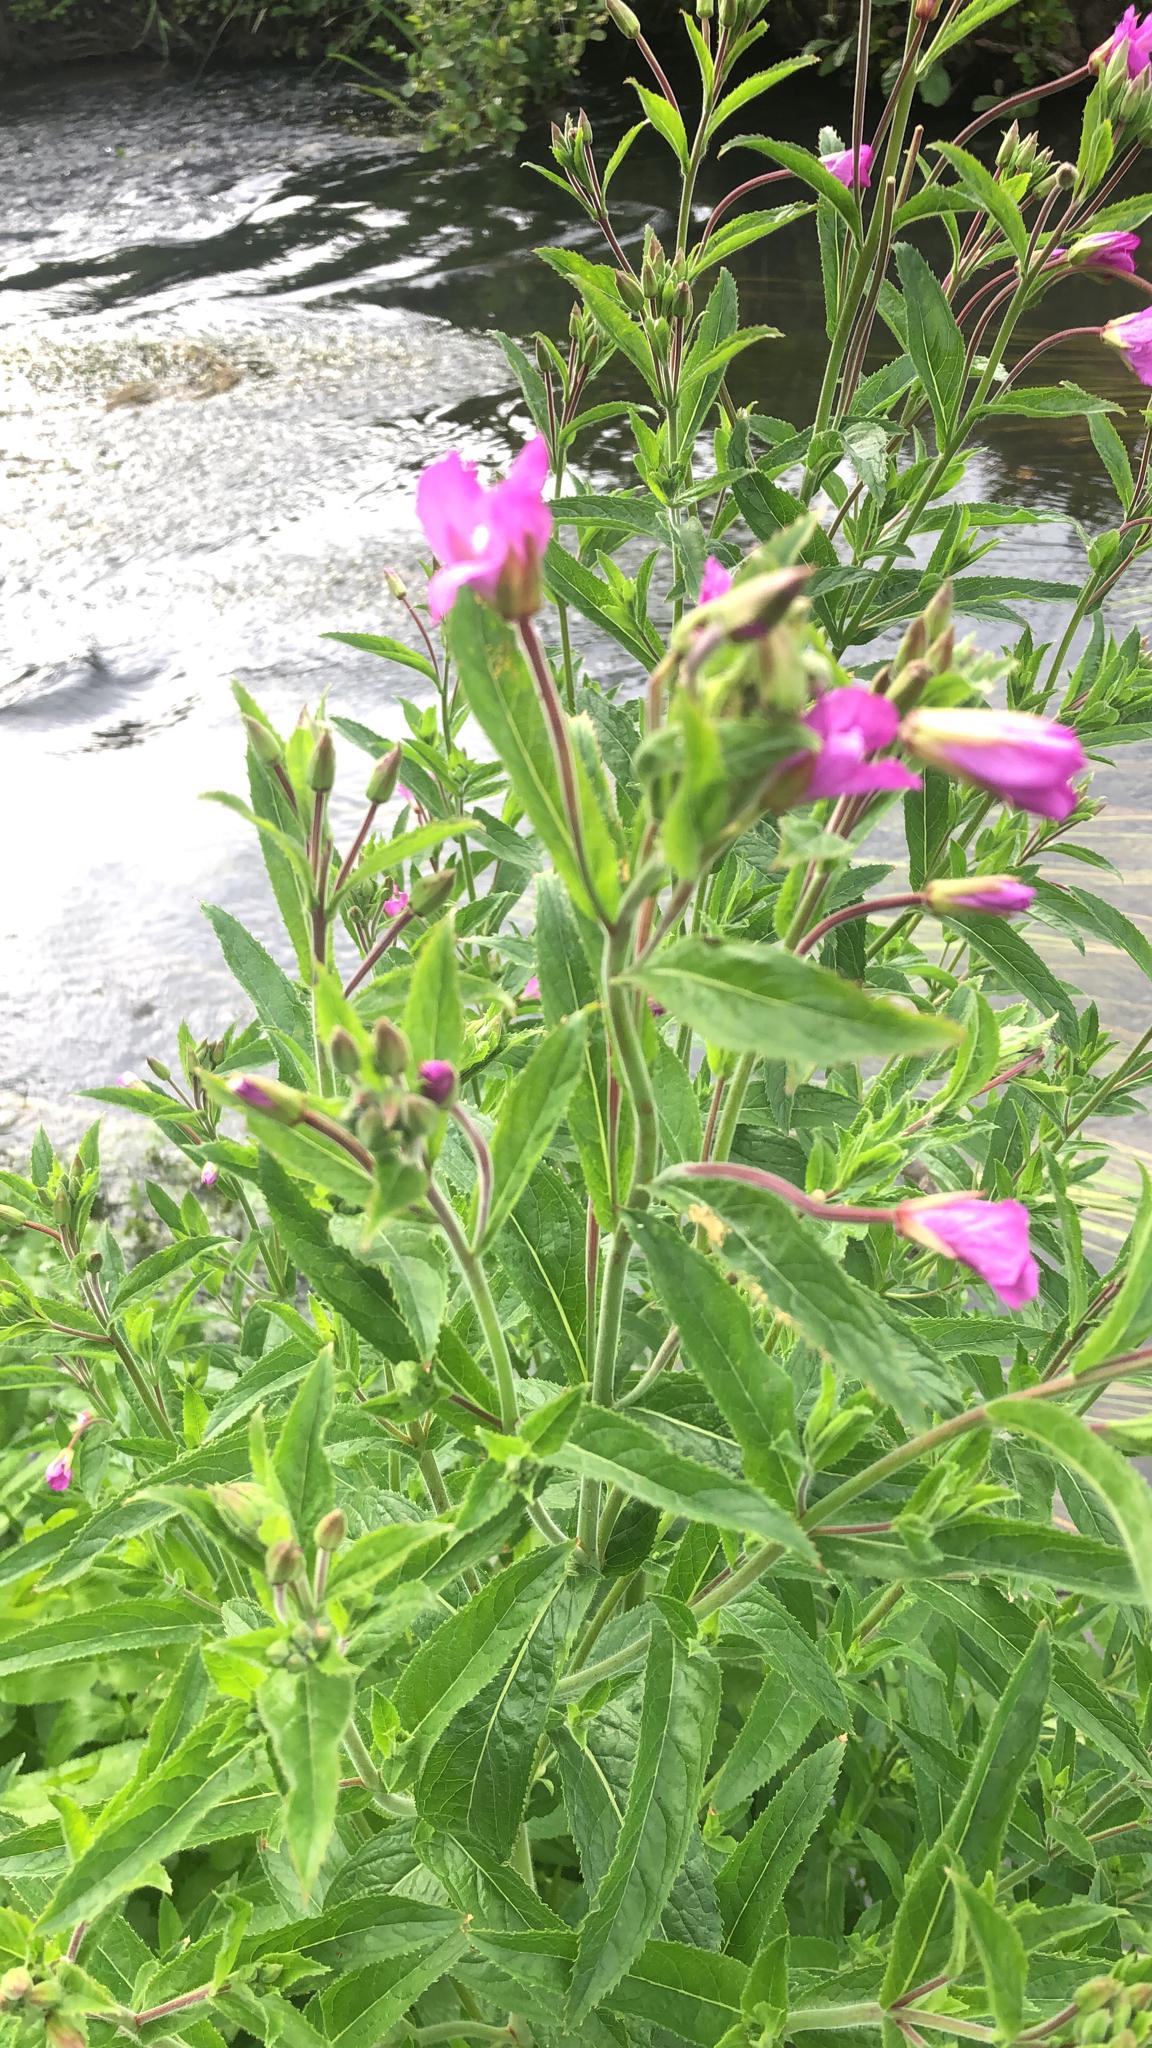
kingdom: Plantae
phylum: Tracheophyta
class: Magnoliopsida
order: Myrtales
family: Onagraceae
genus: Epilobium
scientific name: Epilobium hirsutum
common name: Great willowherb
